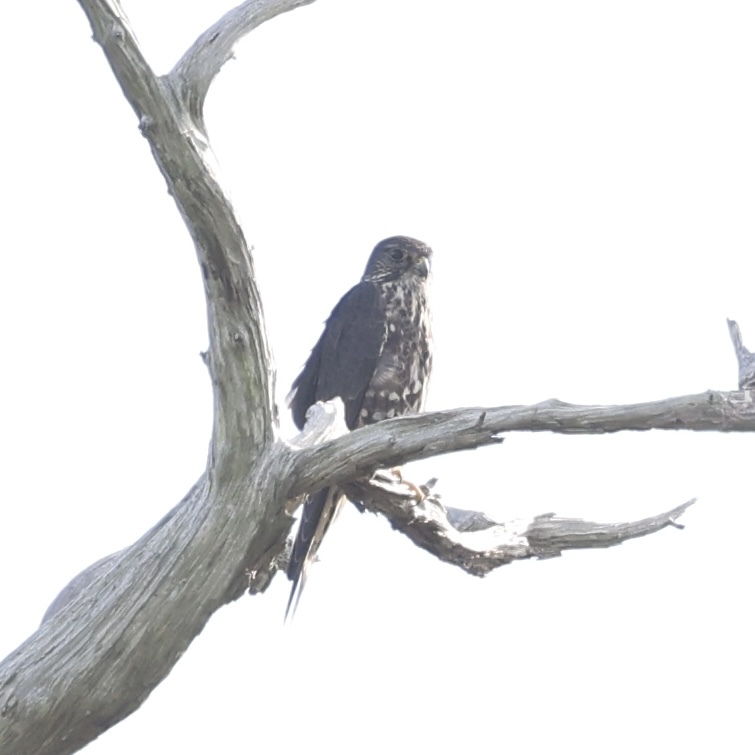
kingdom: Animalia
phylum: Chordata
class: Aves
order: Falconiformes
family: Falconidae
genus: Falco
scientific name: Falco columbarius
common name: Merlin
